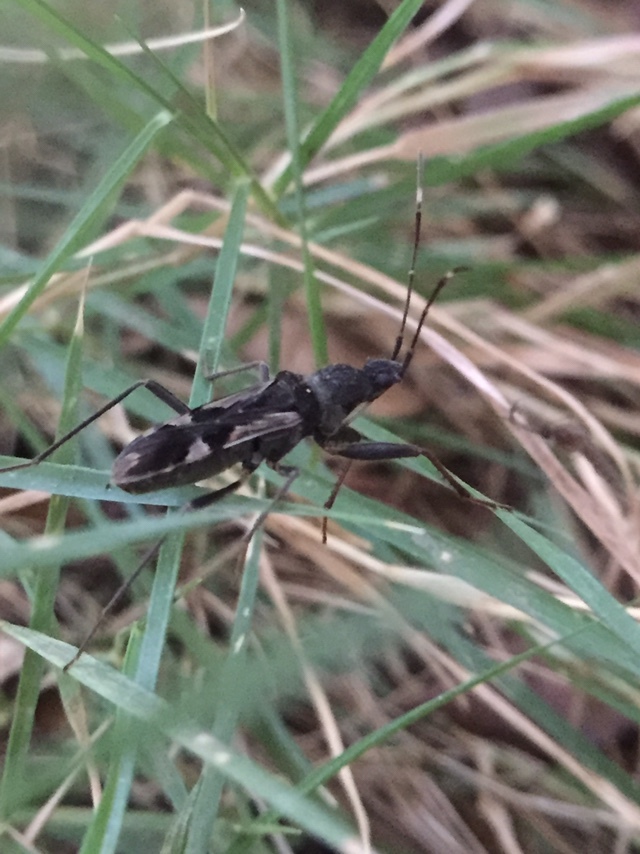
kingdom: Animalia
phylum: Arthropoda
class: Insecta
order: Hemiptera
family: Rhyparochromidae
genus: Metochus
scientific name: Metochus villosulus
